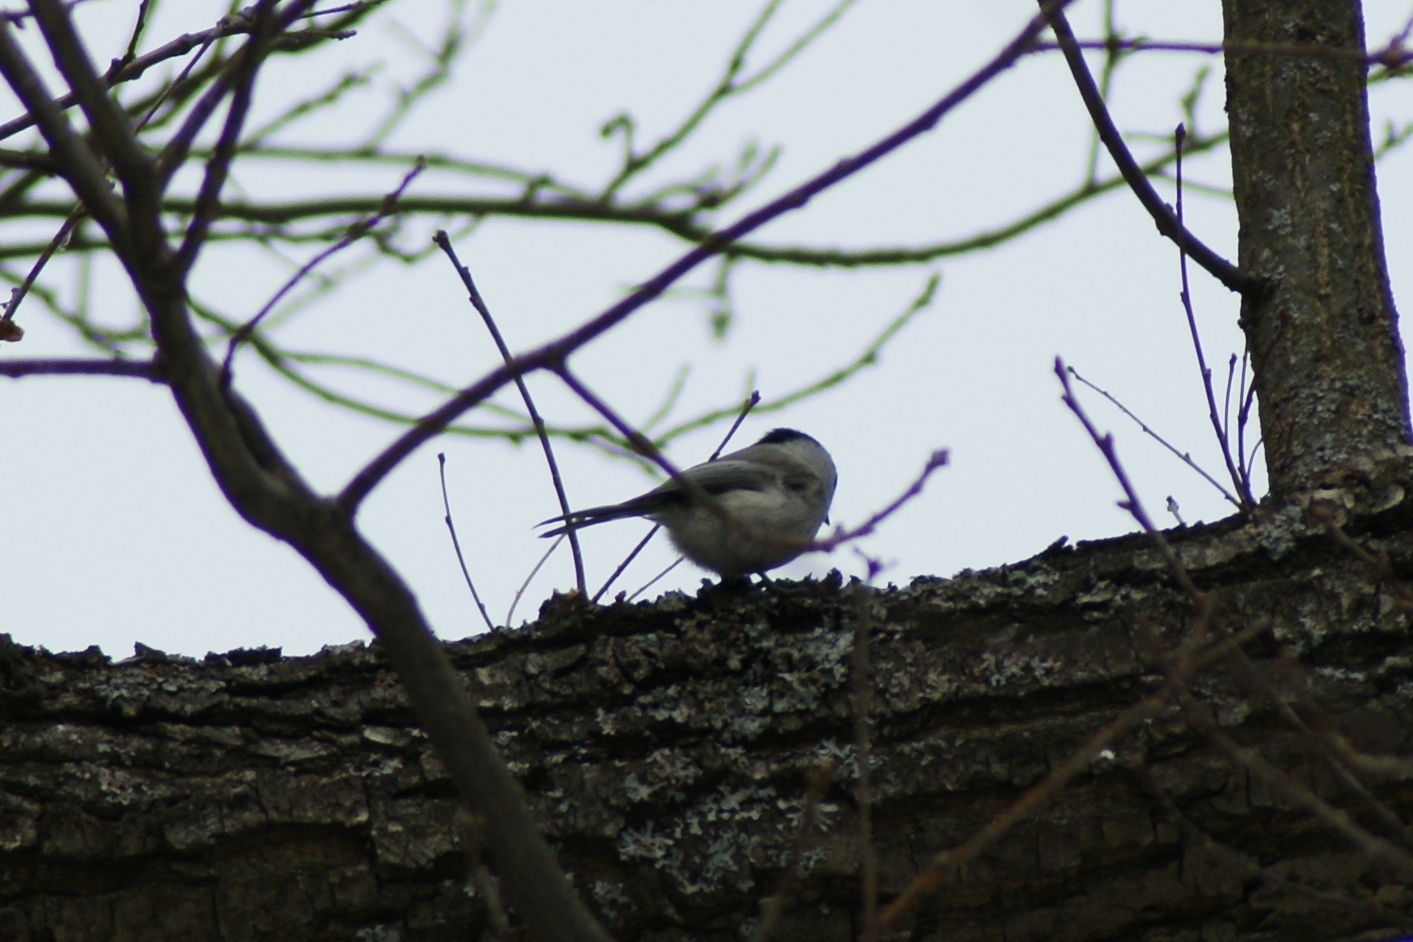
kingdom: Animalia
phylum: Chordata
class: Aves
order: Passeriformes
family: Paridae
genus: Poecile
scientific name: Poecile montanus
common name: Willow tit
